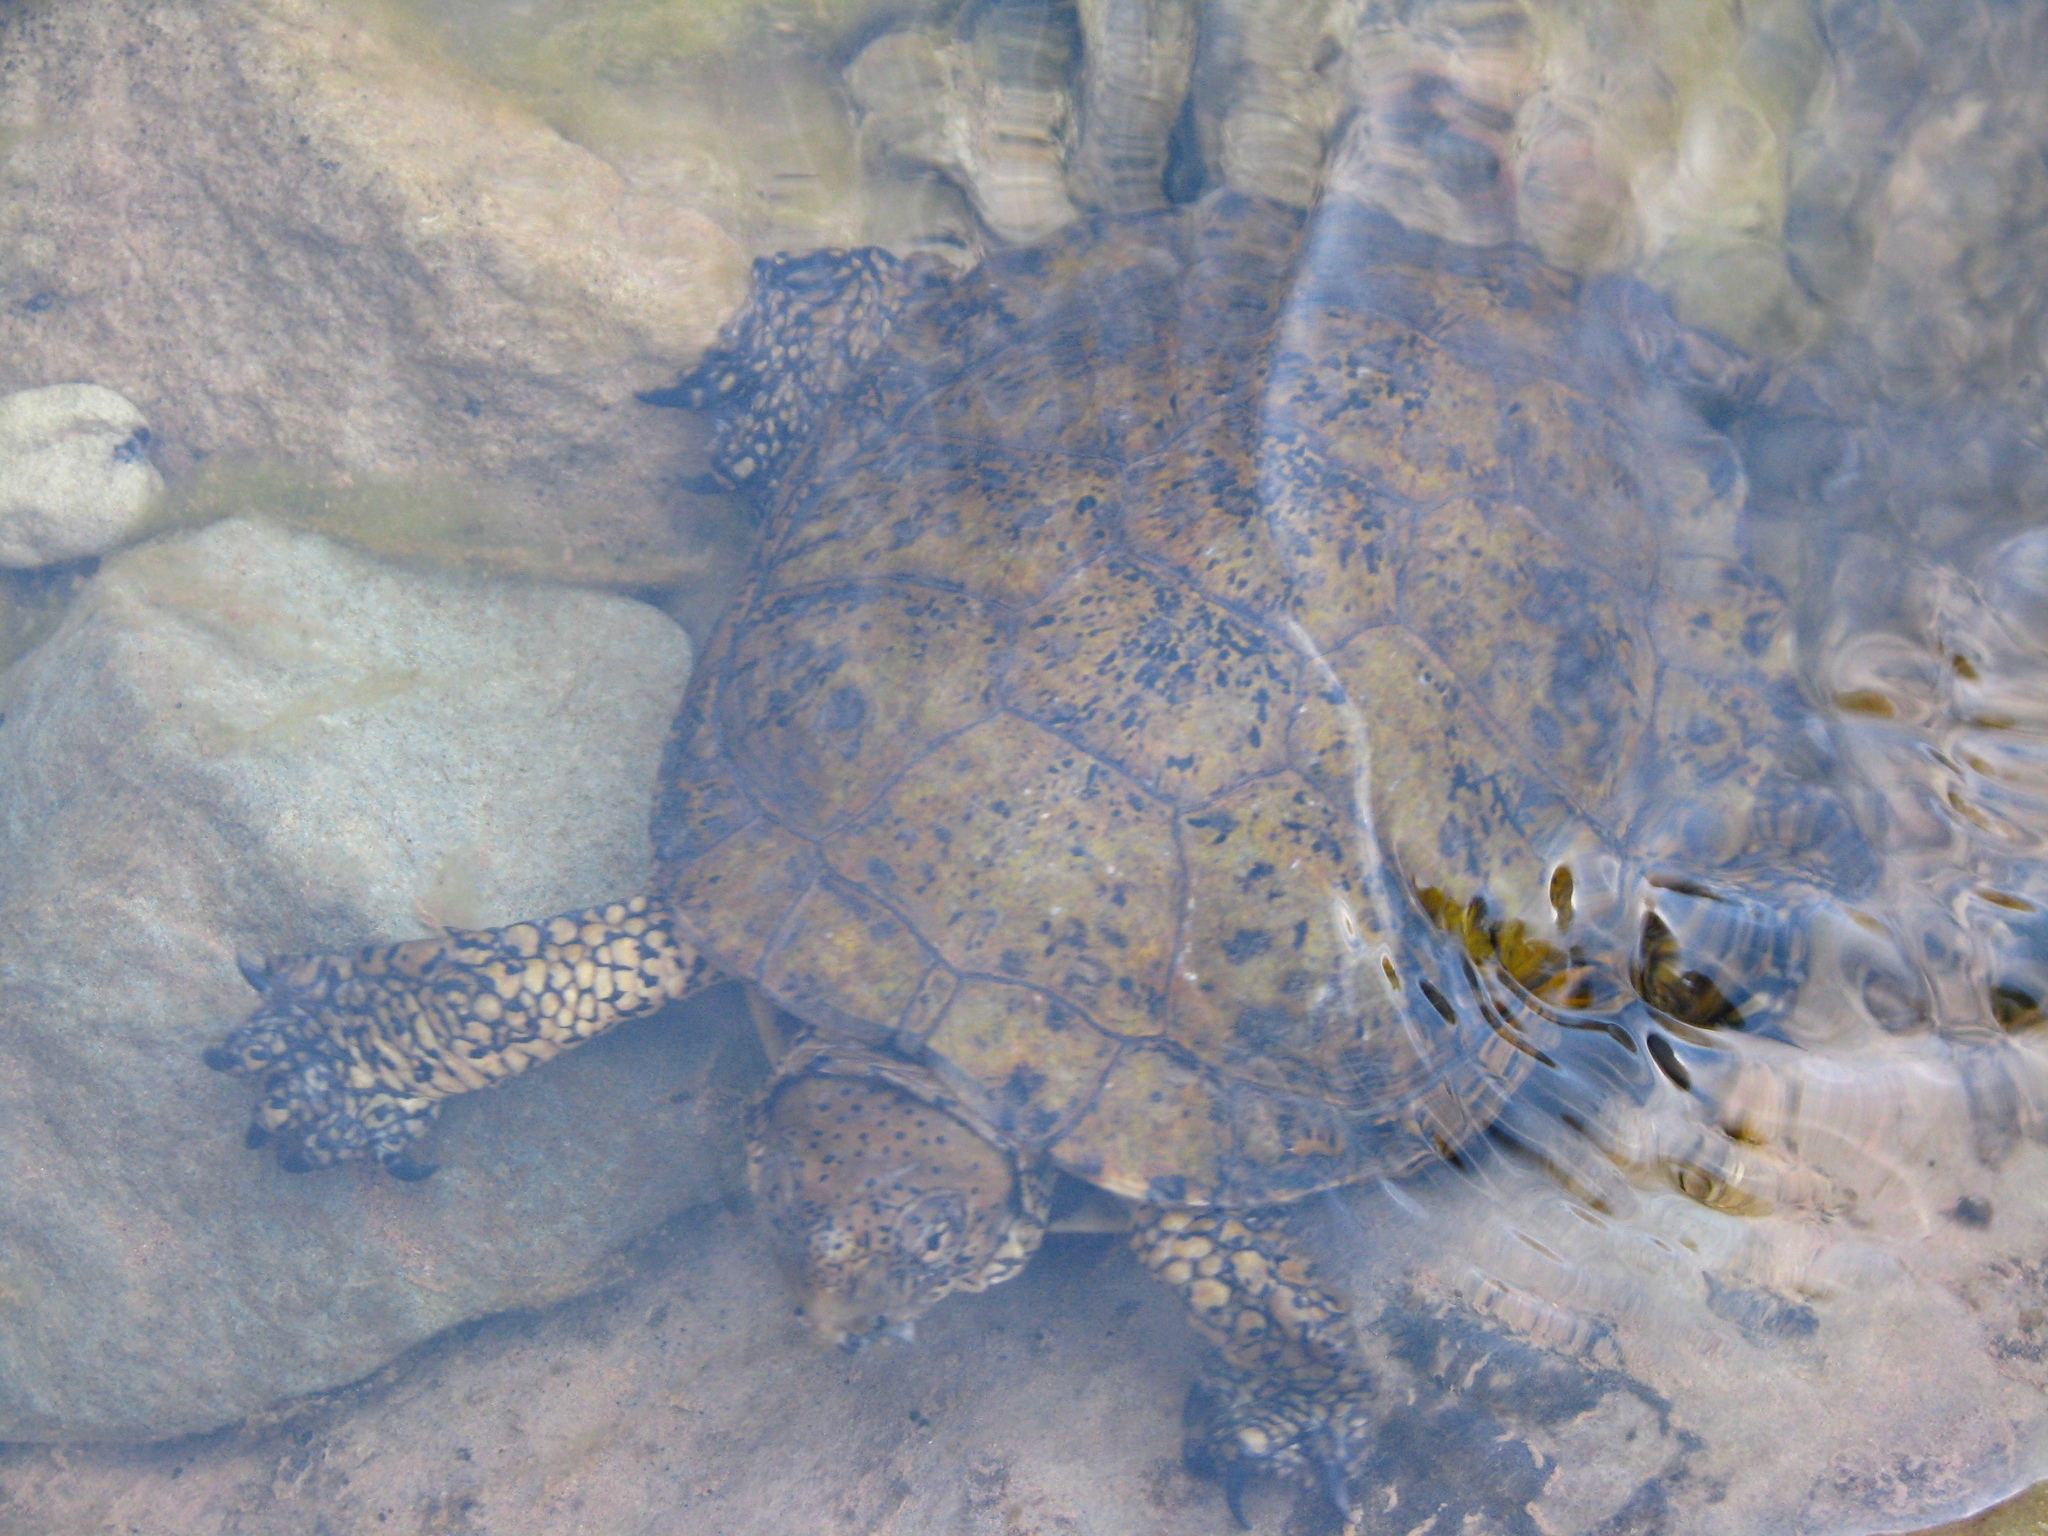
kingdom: Animalia
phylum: Chordata
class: Testudines
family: Emydidae
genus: Actinemys
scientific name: Actinemys pallida
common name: Southern pacific pond turtle
